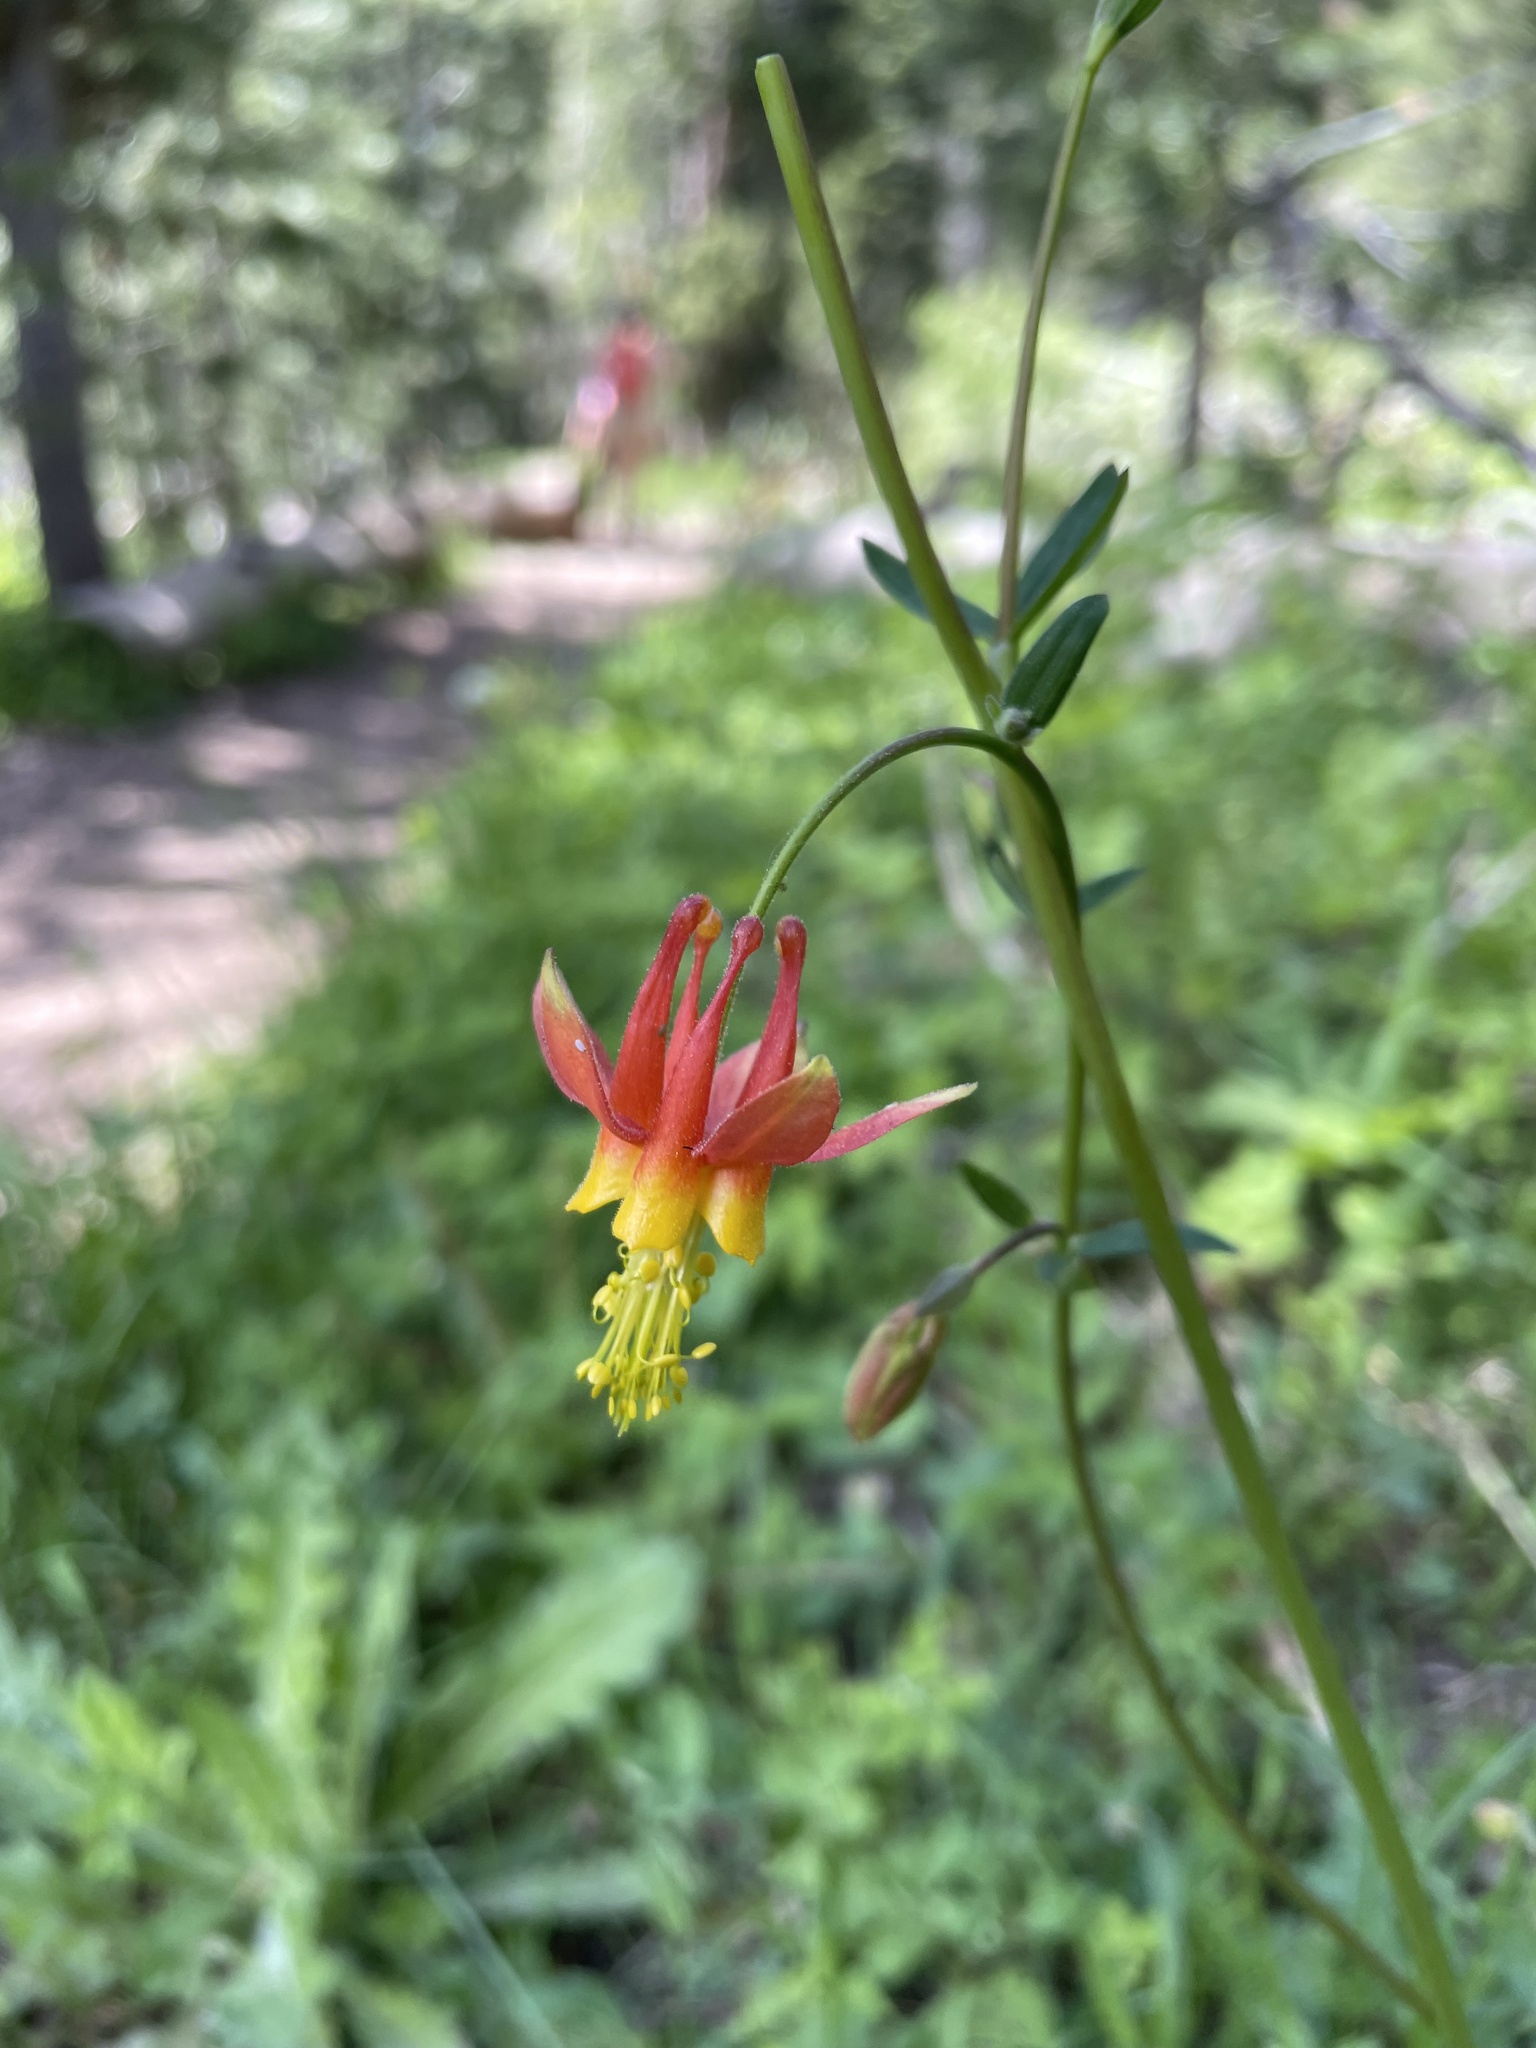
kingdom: Plantae
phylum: Tracheophyta
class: Magnoliopsida
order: Ranunculales
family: Ranunculaceae
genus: Aquilegia
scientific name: Aquilegia formosa
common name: Sitka columbine
